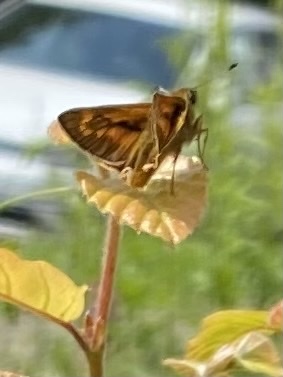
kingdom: Animalia
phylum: Arthropoda
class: Insecta
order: Lepidoptera
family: Hesperiidae
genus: Ochlodes
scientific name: Ochlodes venata
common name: Large skipper
